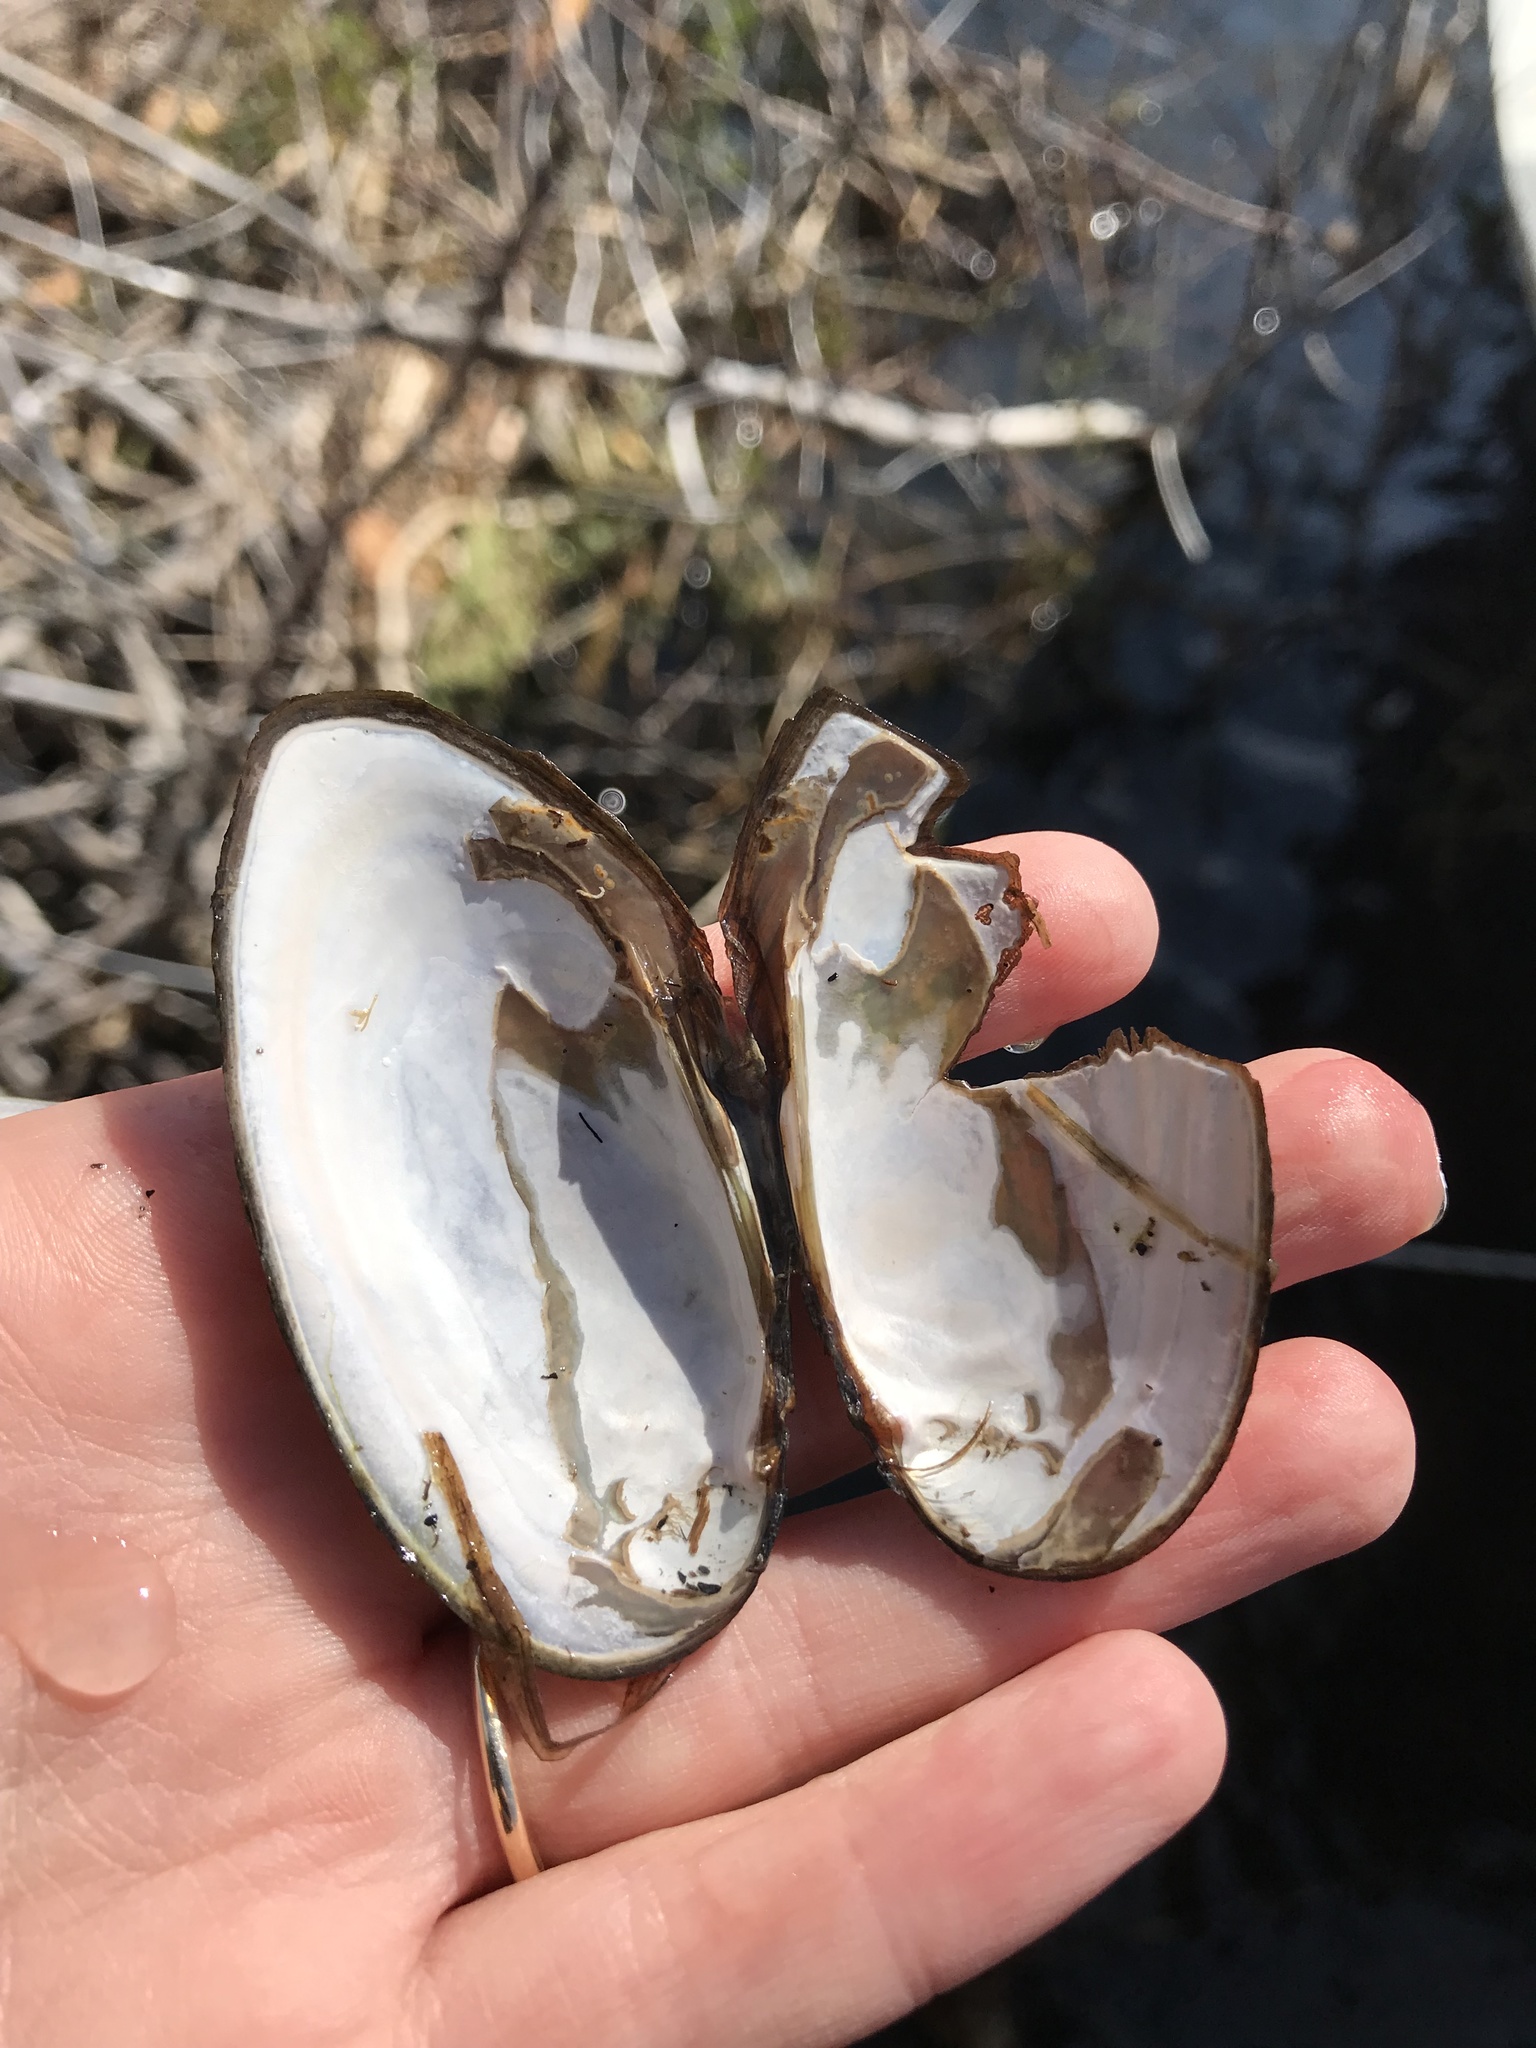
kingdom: Animalia
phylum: Mollusca
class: Bivalvia
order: Unionida
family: Unionidae
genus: Elliptio
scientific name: Elliptio complanata
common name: Eastern elliptio
